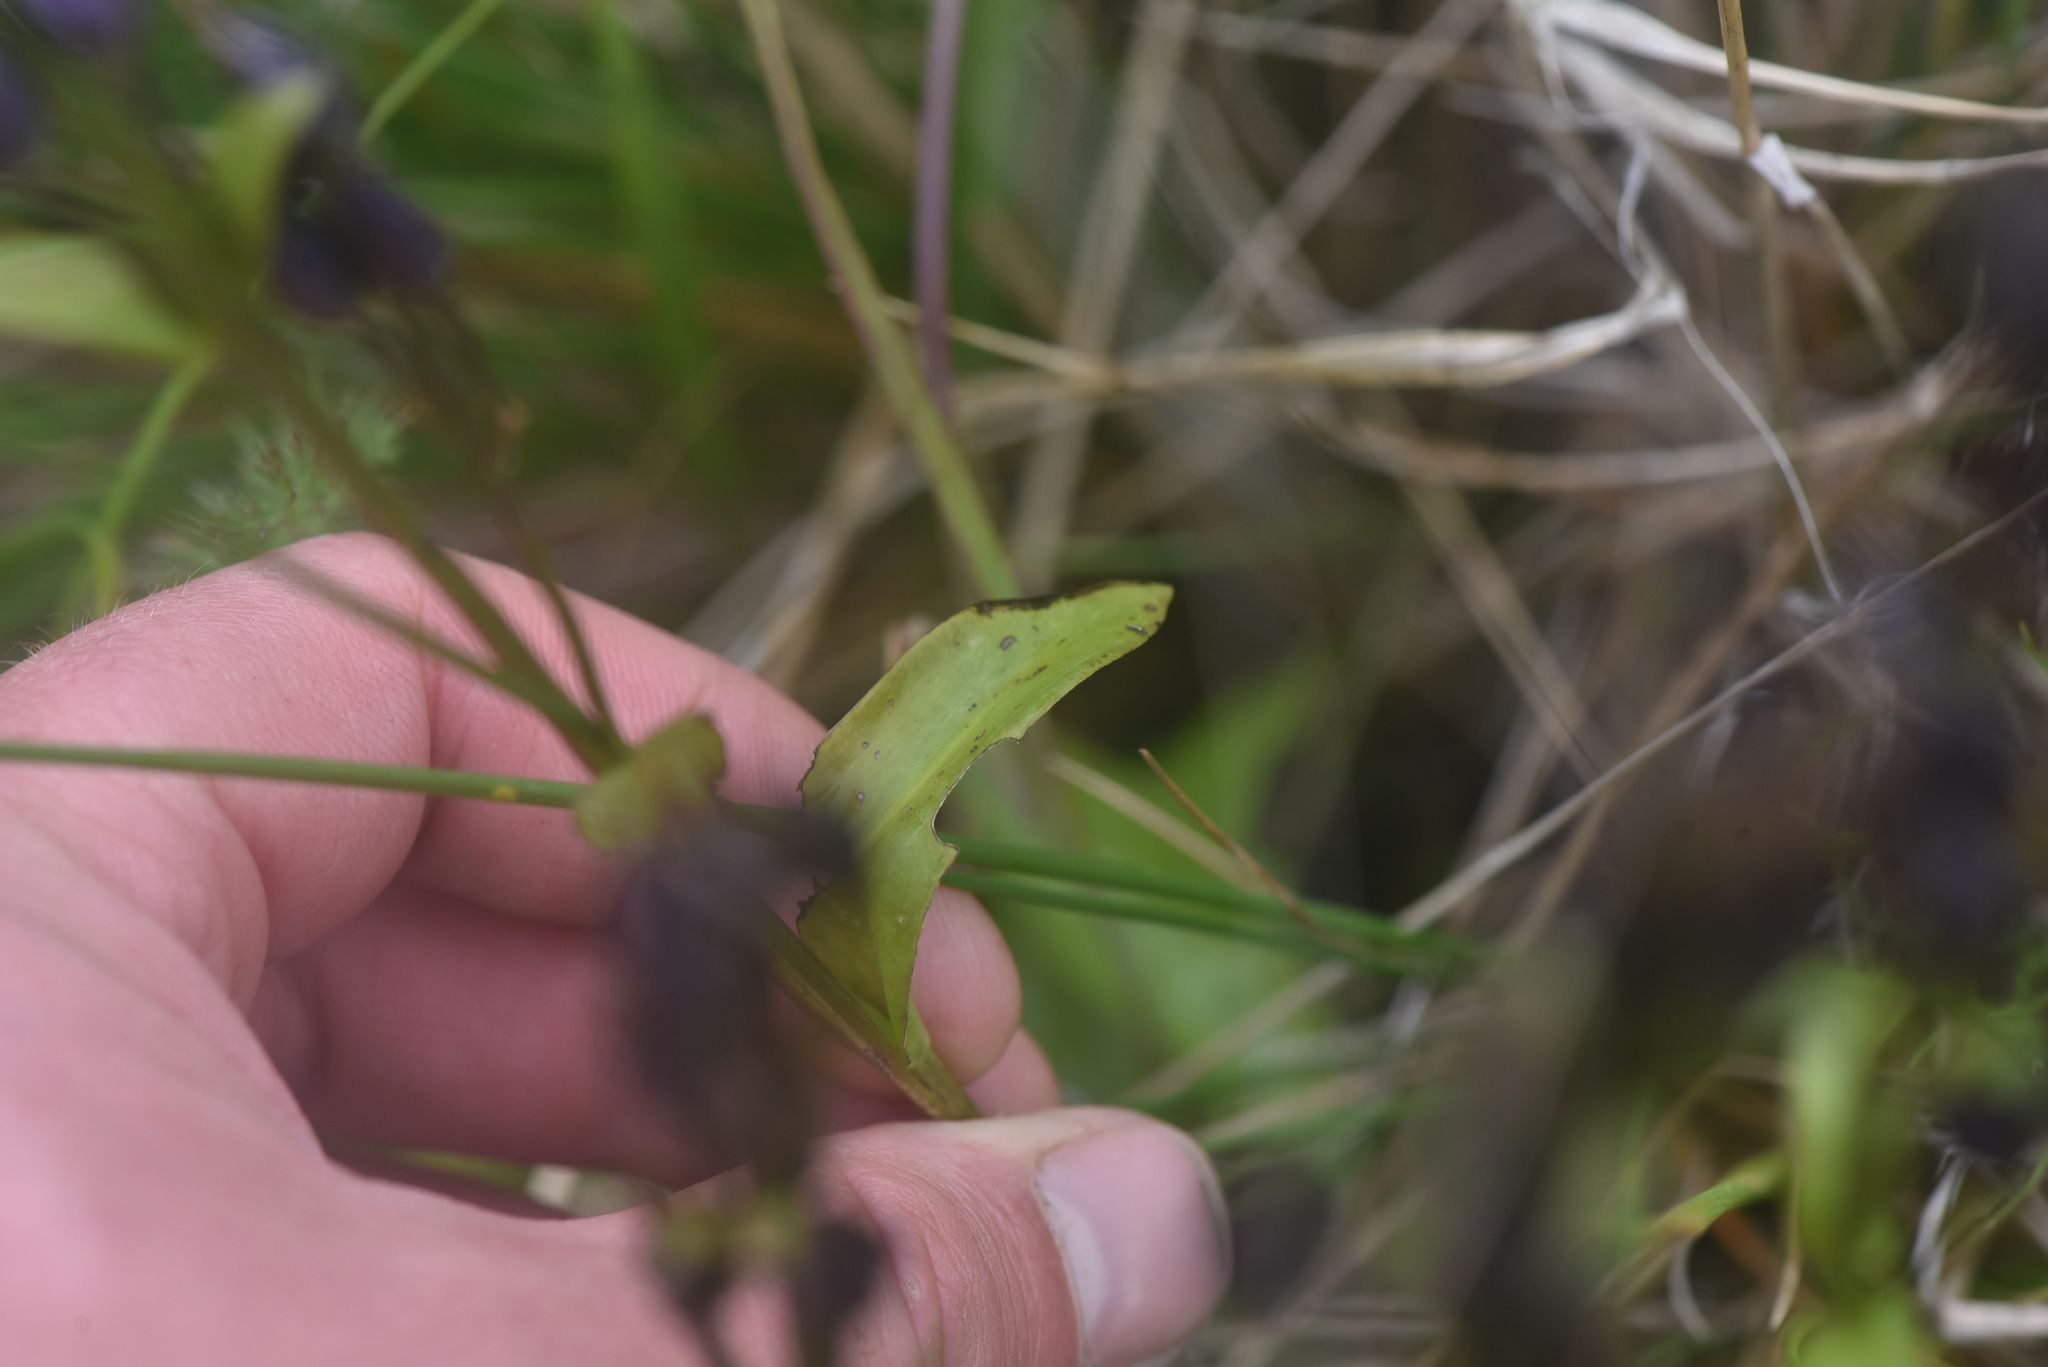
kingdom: Plantae
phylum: Tracheophyta
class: Magnoliopsida
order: Gentianales
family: Gentianaceae
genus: Swertia
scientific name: Swertia perennis
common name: Alpine bog swertia
